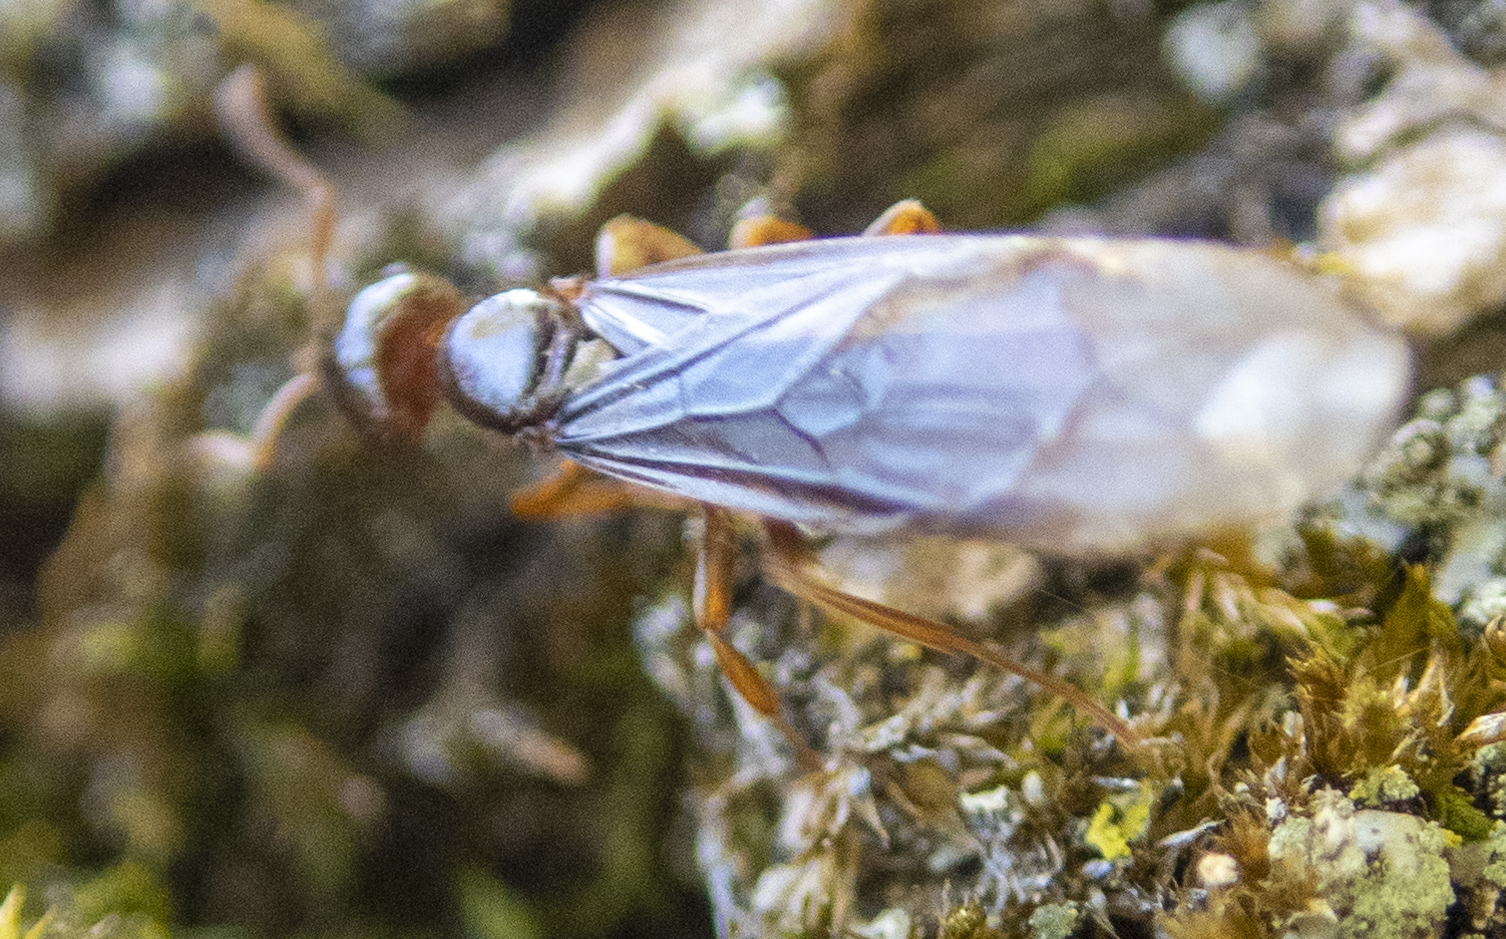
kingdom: Animalia
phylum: Arthropoda
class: Insecta
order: Hymenoptera
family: Formicidae
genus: Lasius
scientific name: Lasius claviger
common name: Common citronella ant
